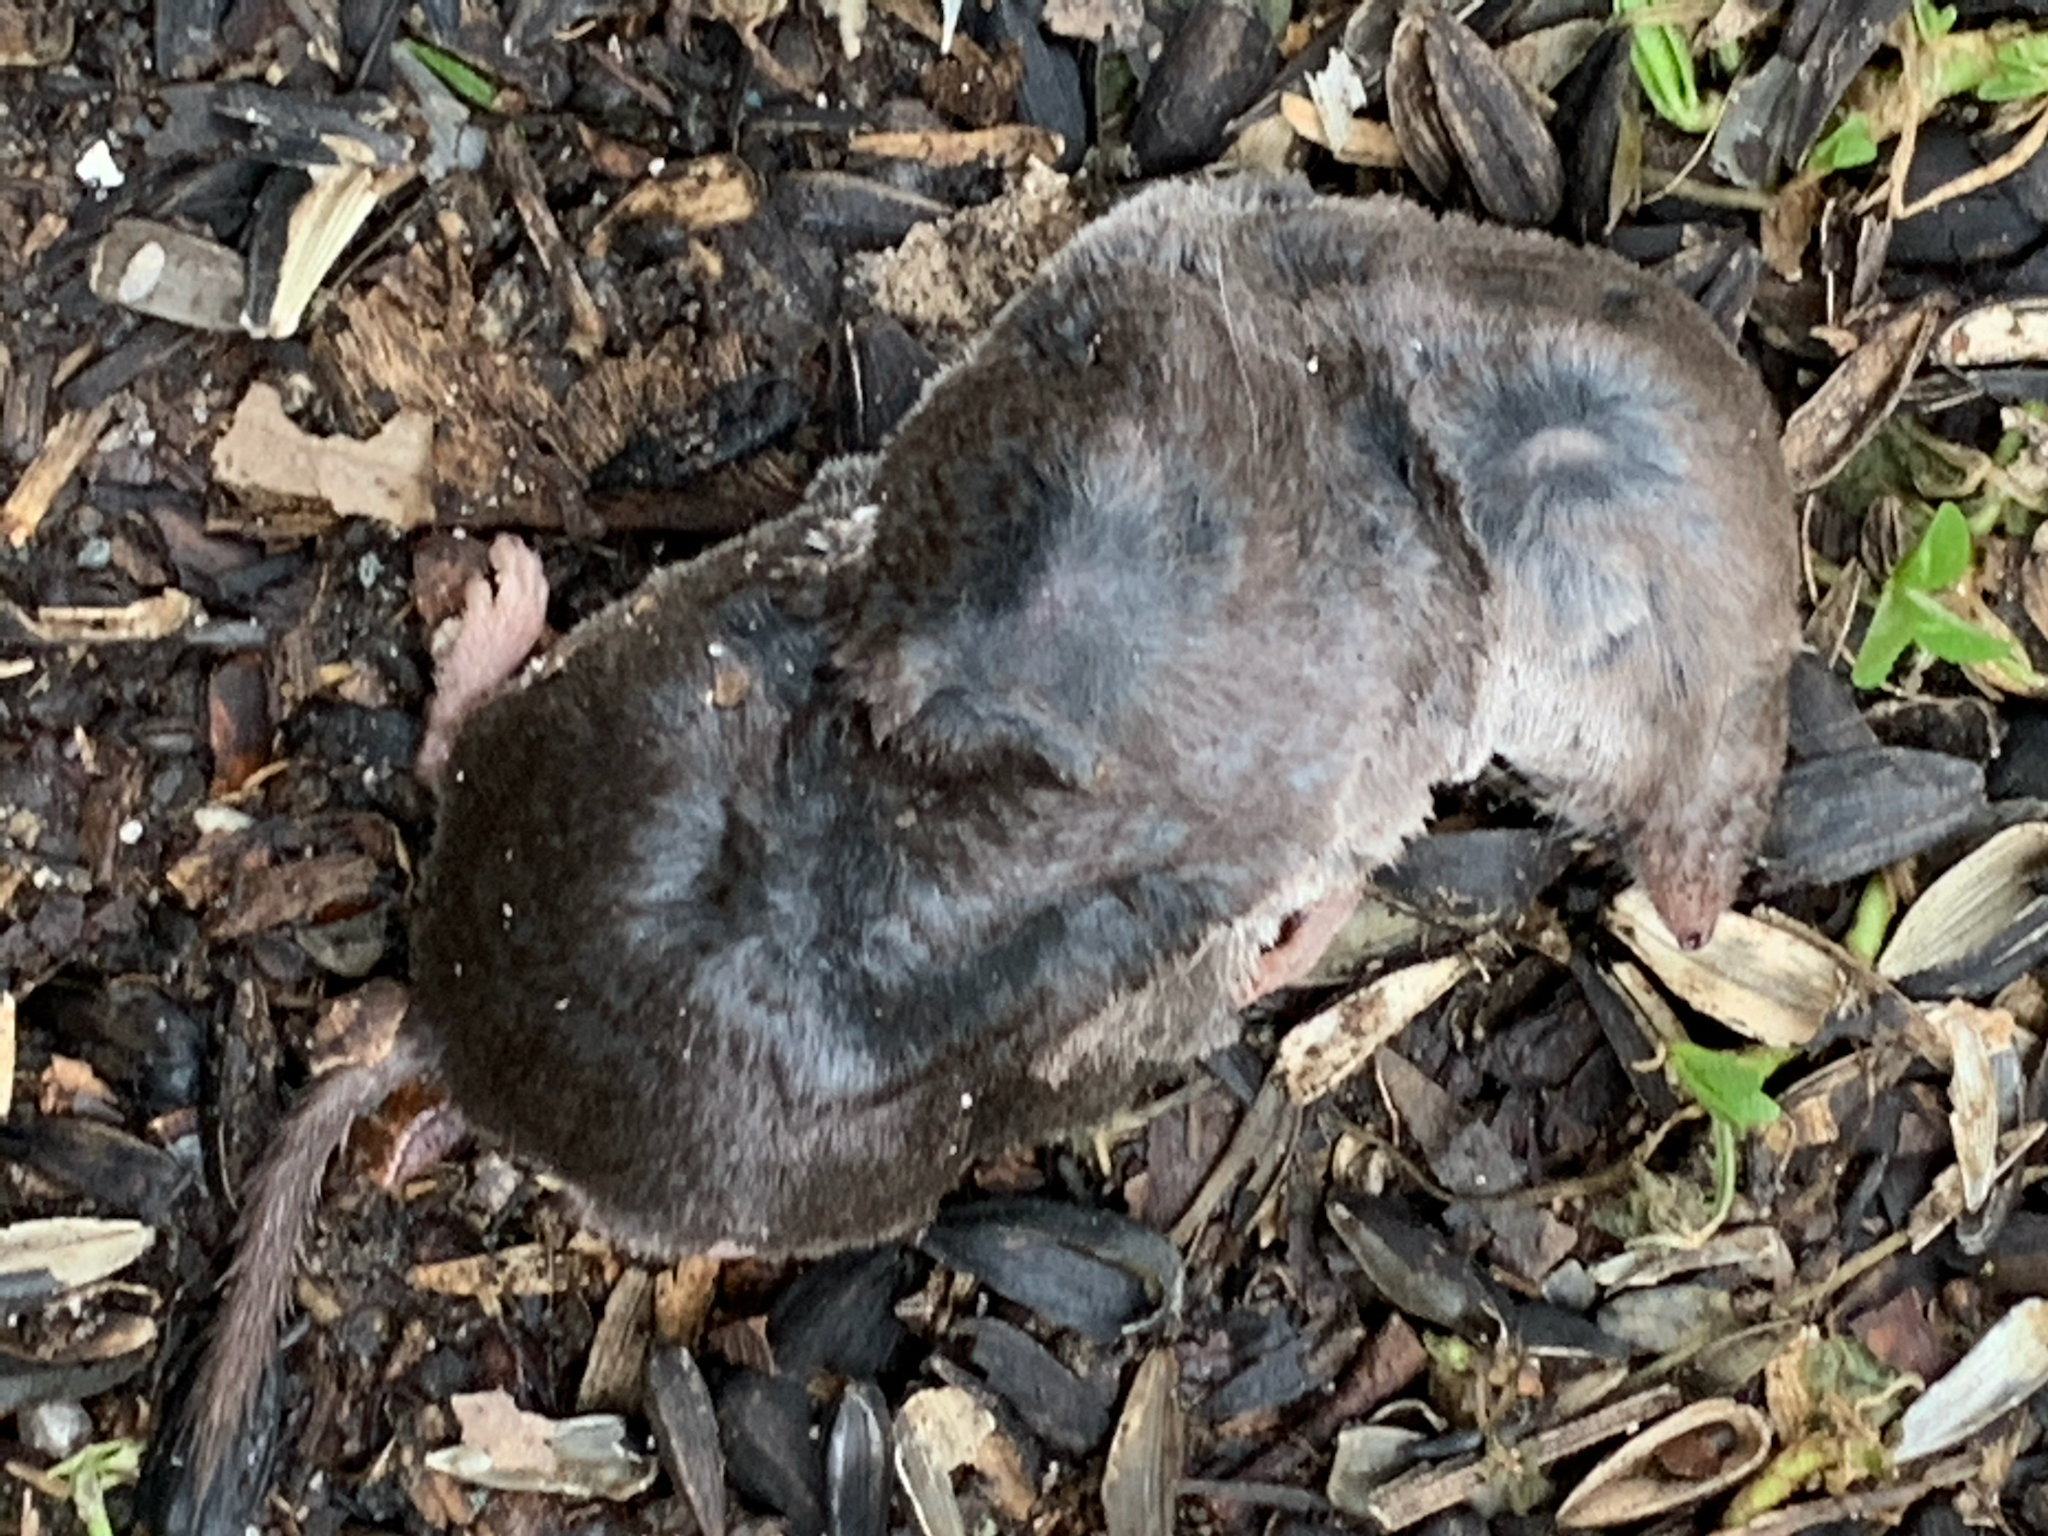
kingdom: Animalia
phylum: Chordata
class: Mammalia
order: Soricomorpha
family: Soricidae
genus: Blarina
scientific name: Blarina brevicauda
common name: Northern short-tailed shrew
